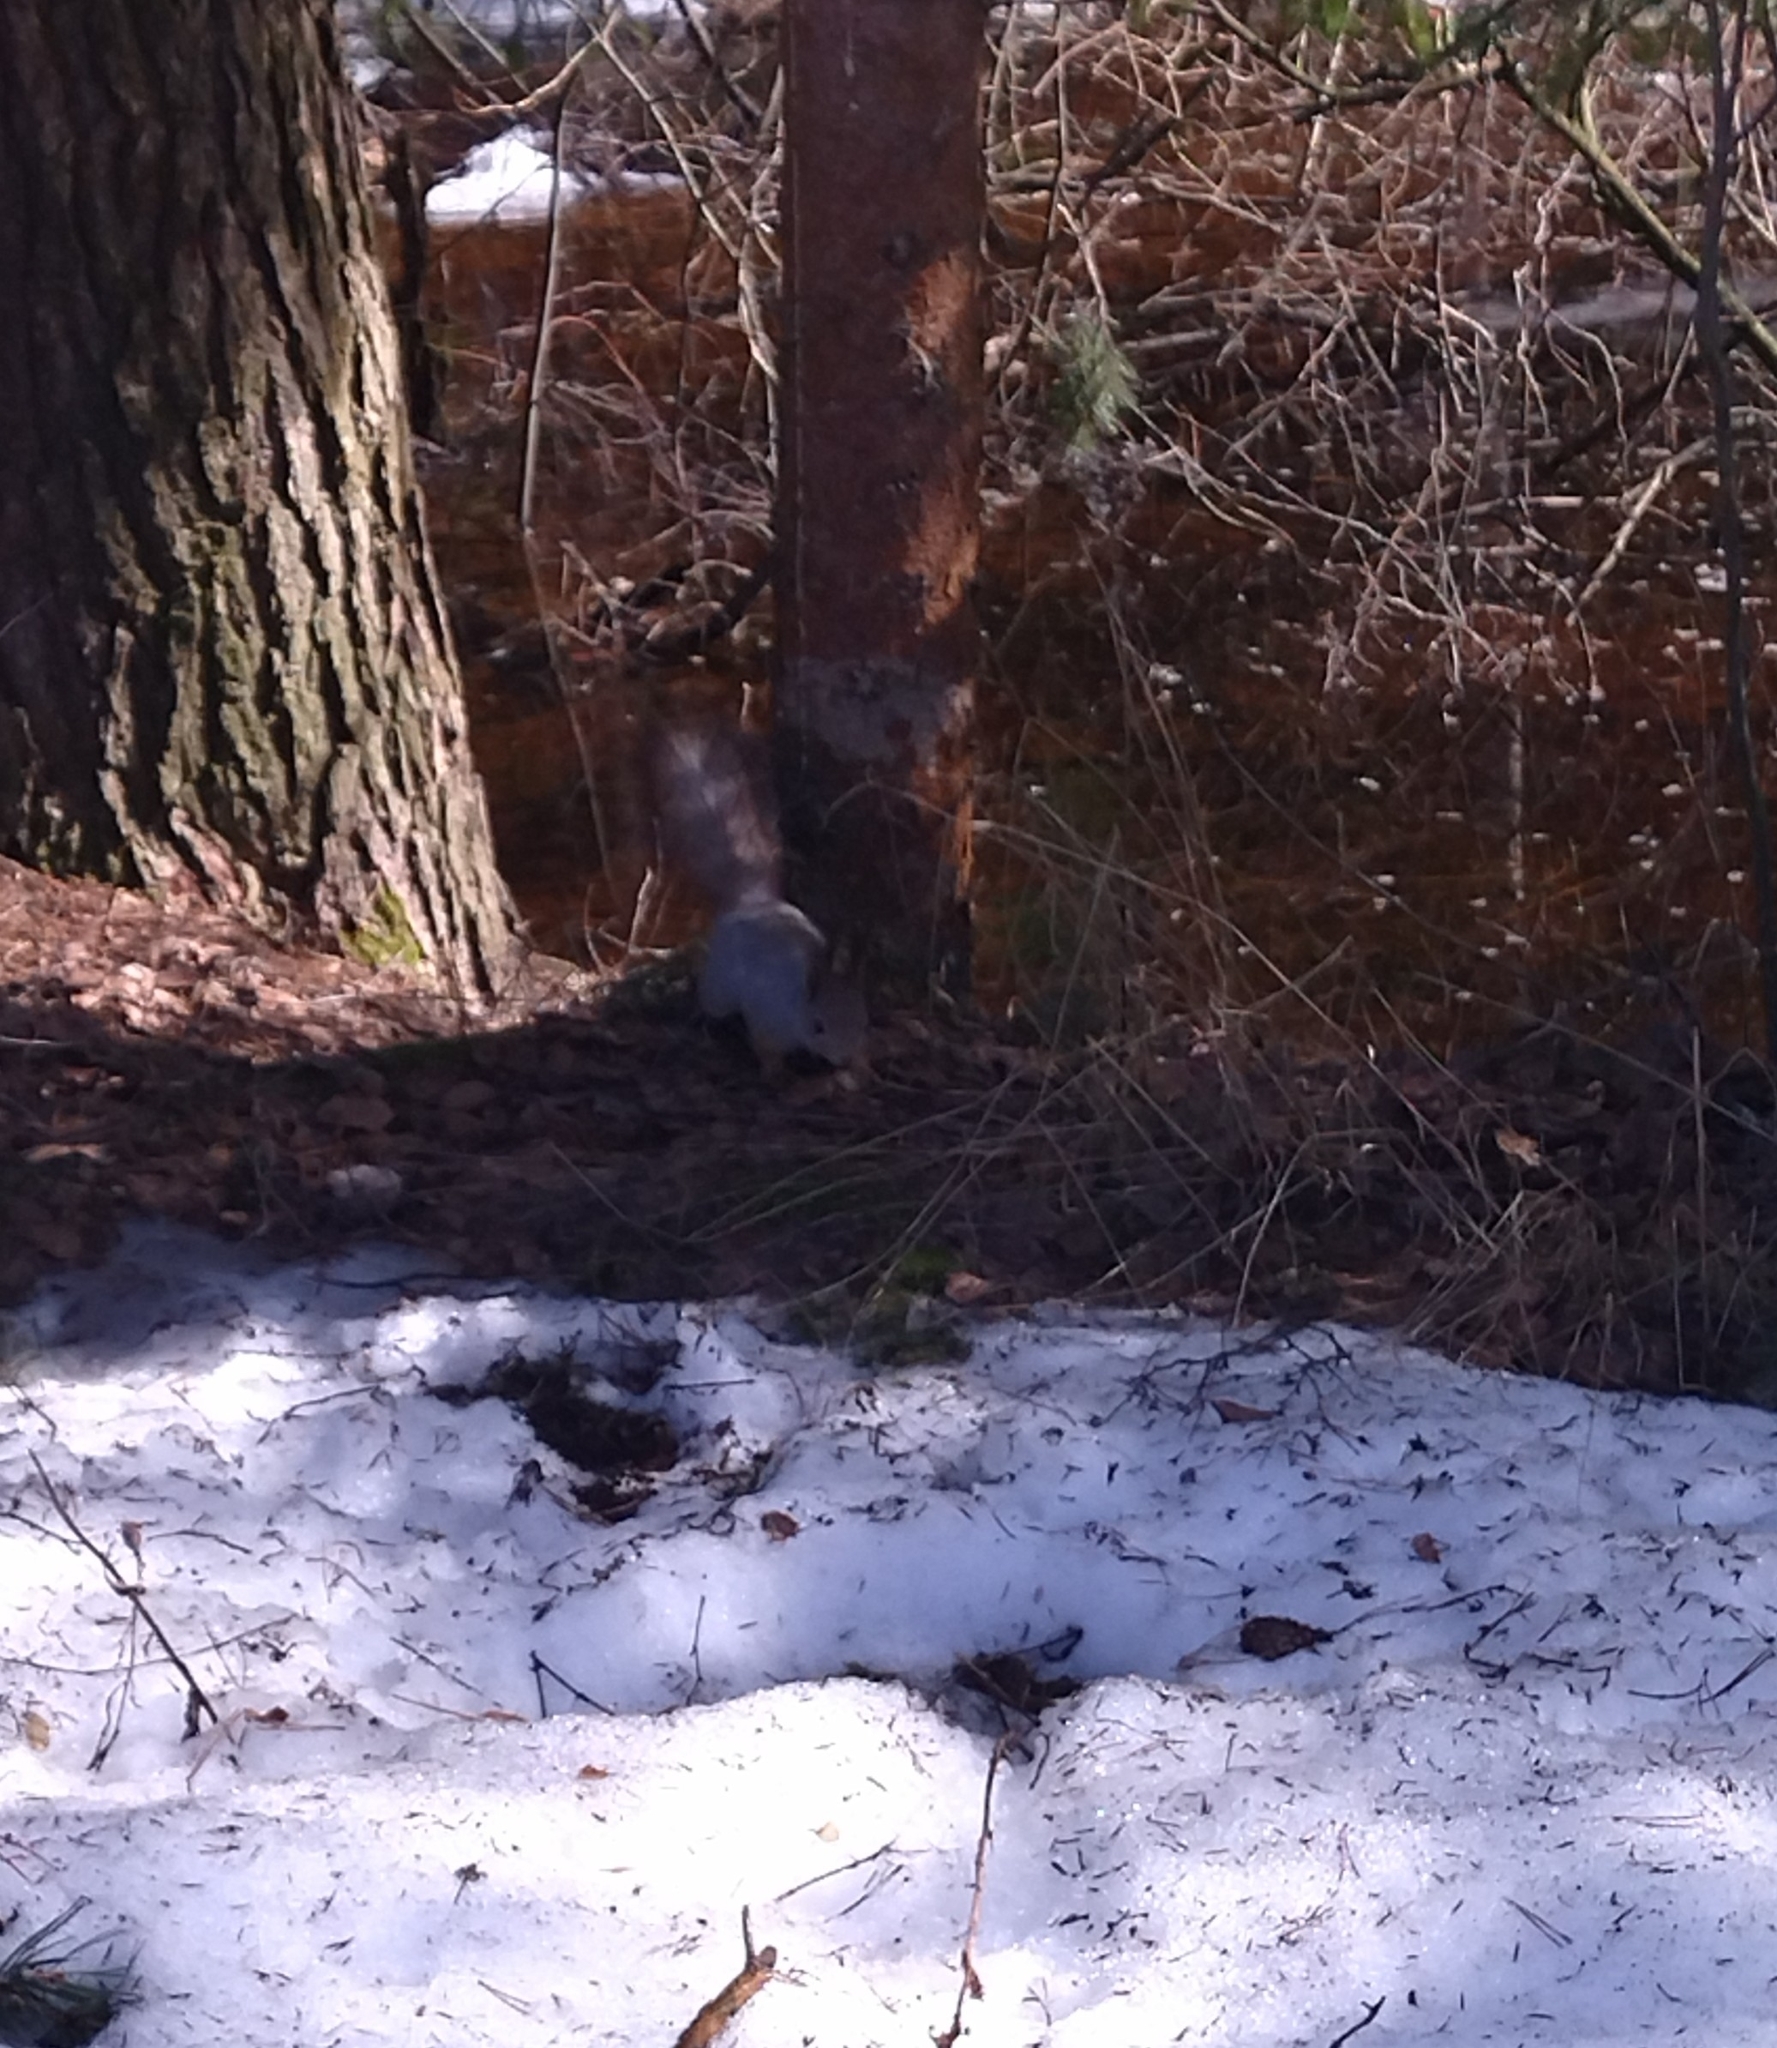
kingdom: Animalia
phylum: Chordata
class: Mammalia
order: Rodentia
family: Sciuridae
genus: Sciurus
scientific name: Sciurus vulgaris
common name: Eurasian red squirrel
